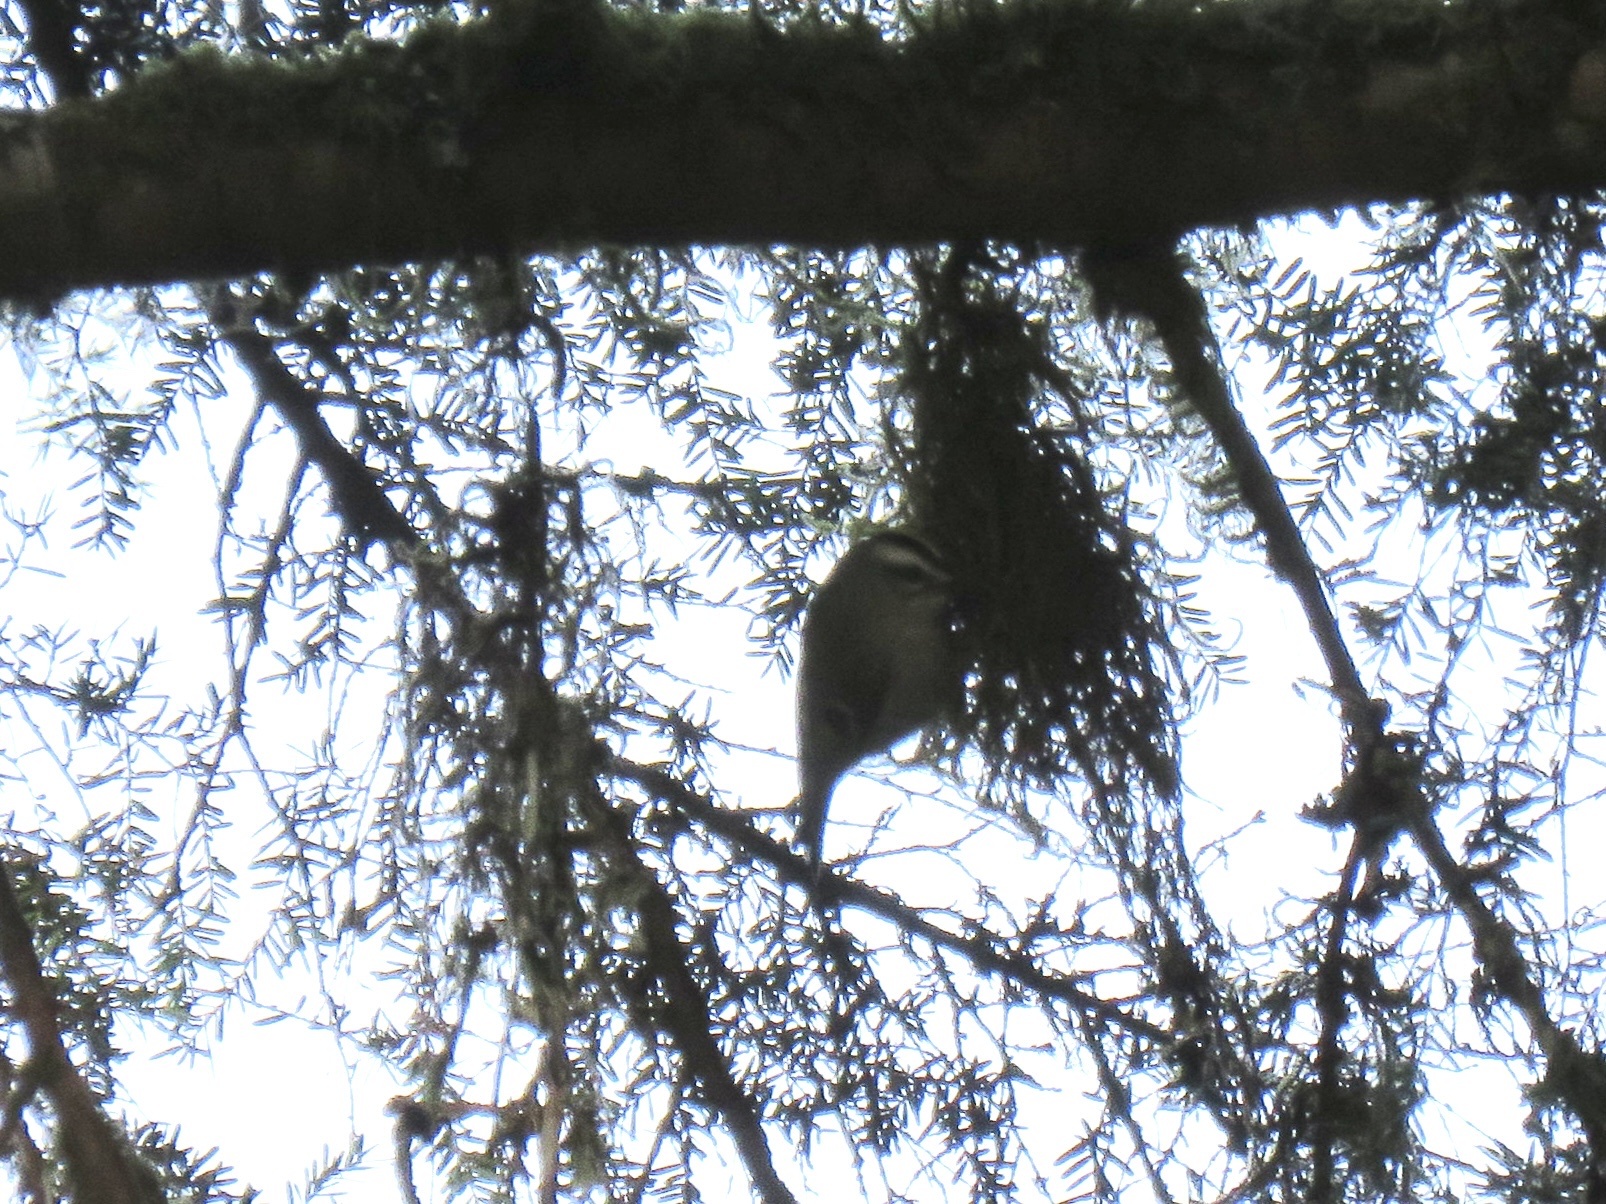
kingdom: Animalia
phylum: Chordata
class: Aves
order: Passeriformes
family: Regulidae
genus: Regulus
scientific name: Regulus satrapa
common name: Golden-crowned kinglet
